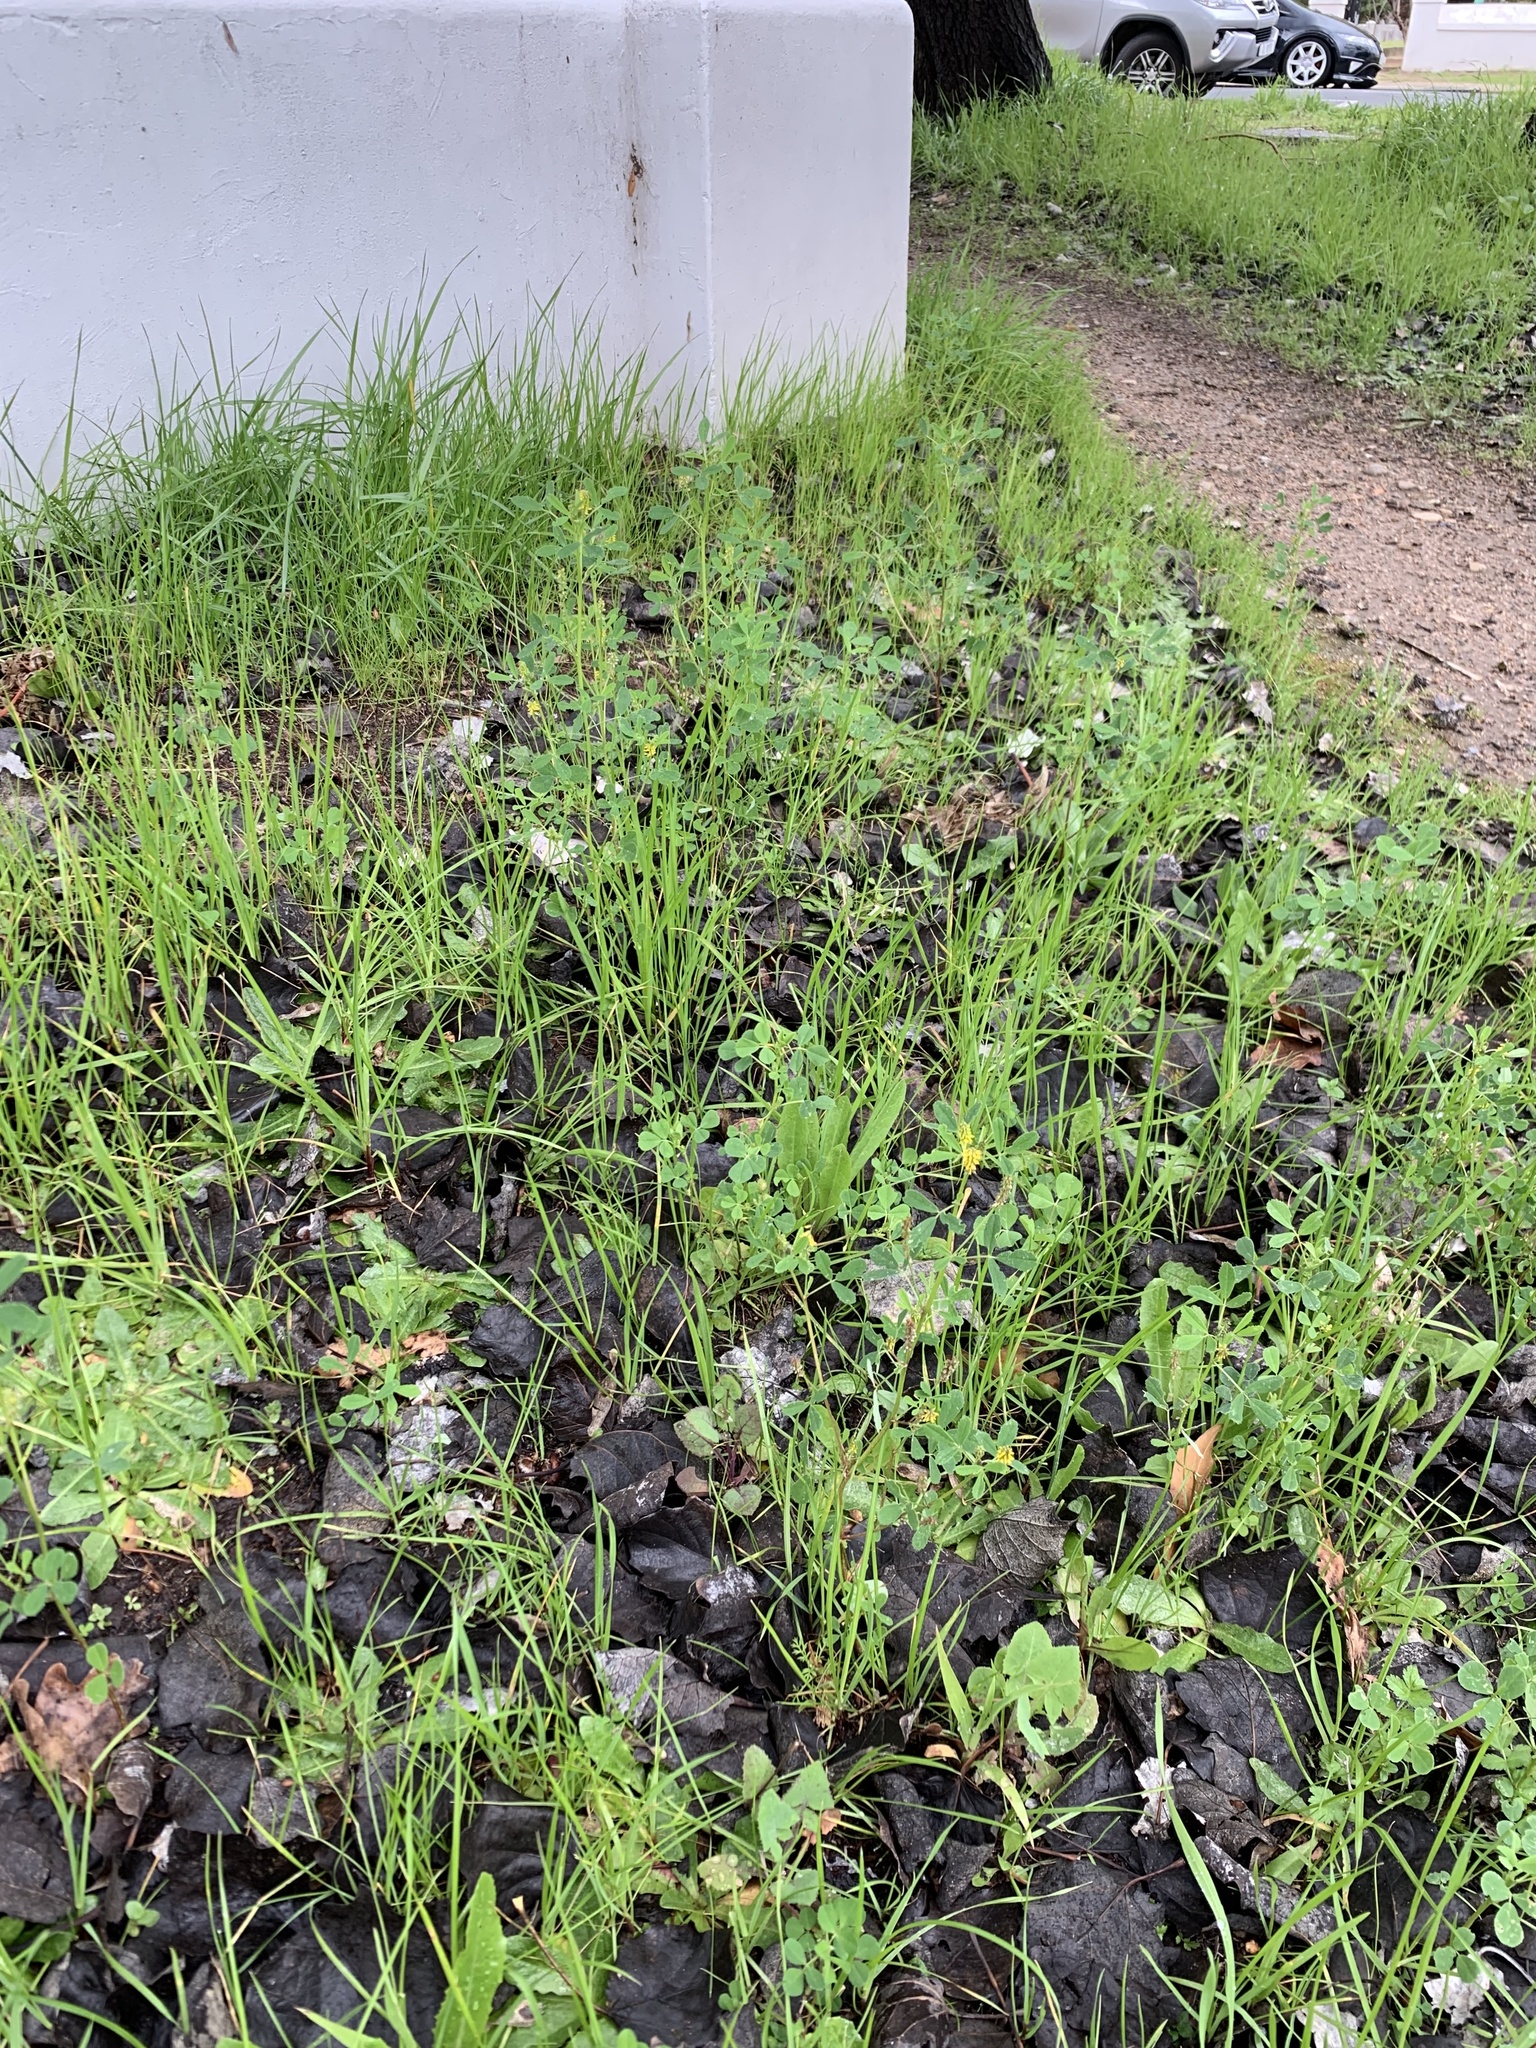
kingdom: Plantae
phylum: Tracheophyta
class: Magnoliopsida
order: Fabales
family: Fabaceae
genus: Melilotus
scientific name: Melilotus indicus
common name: Small melilot
